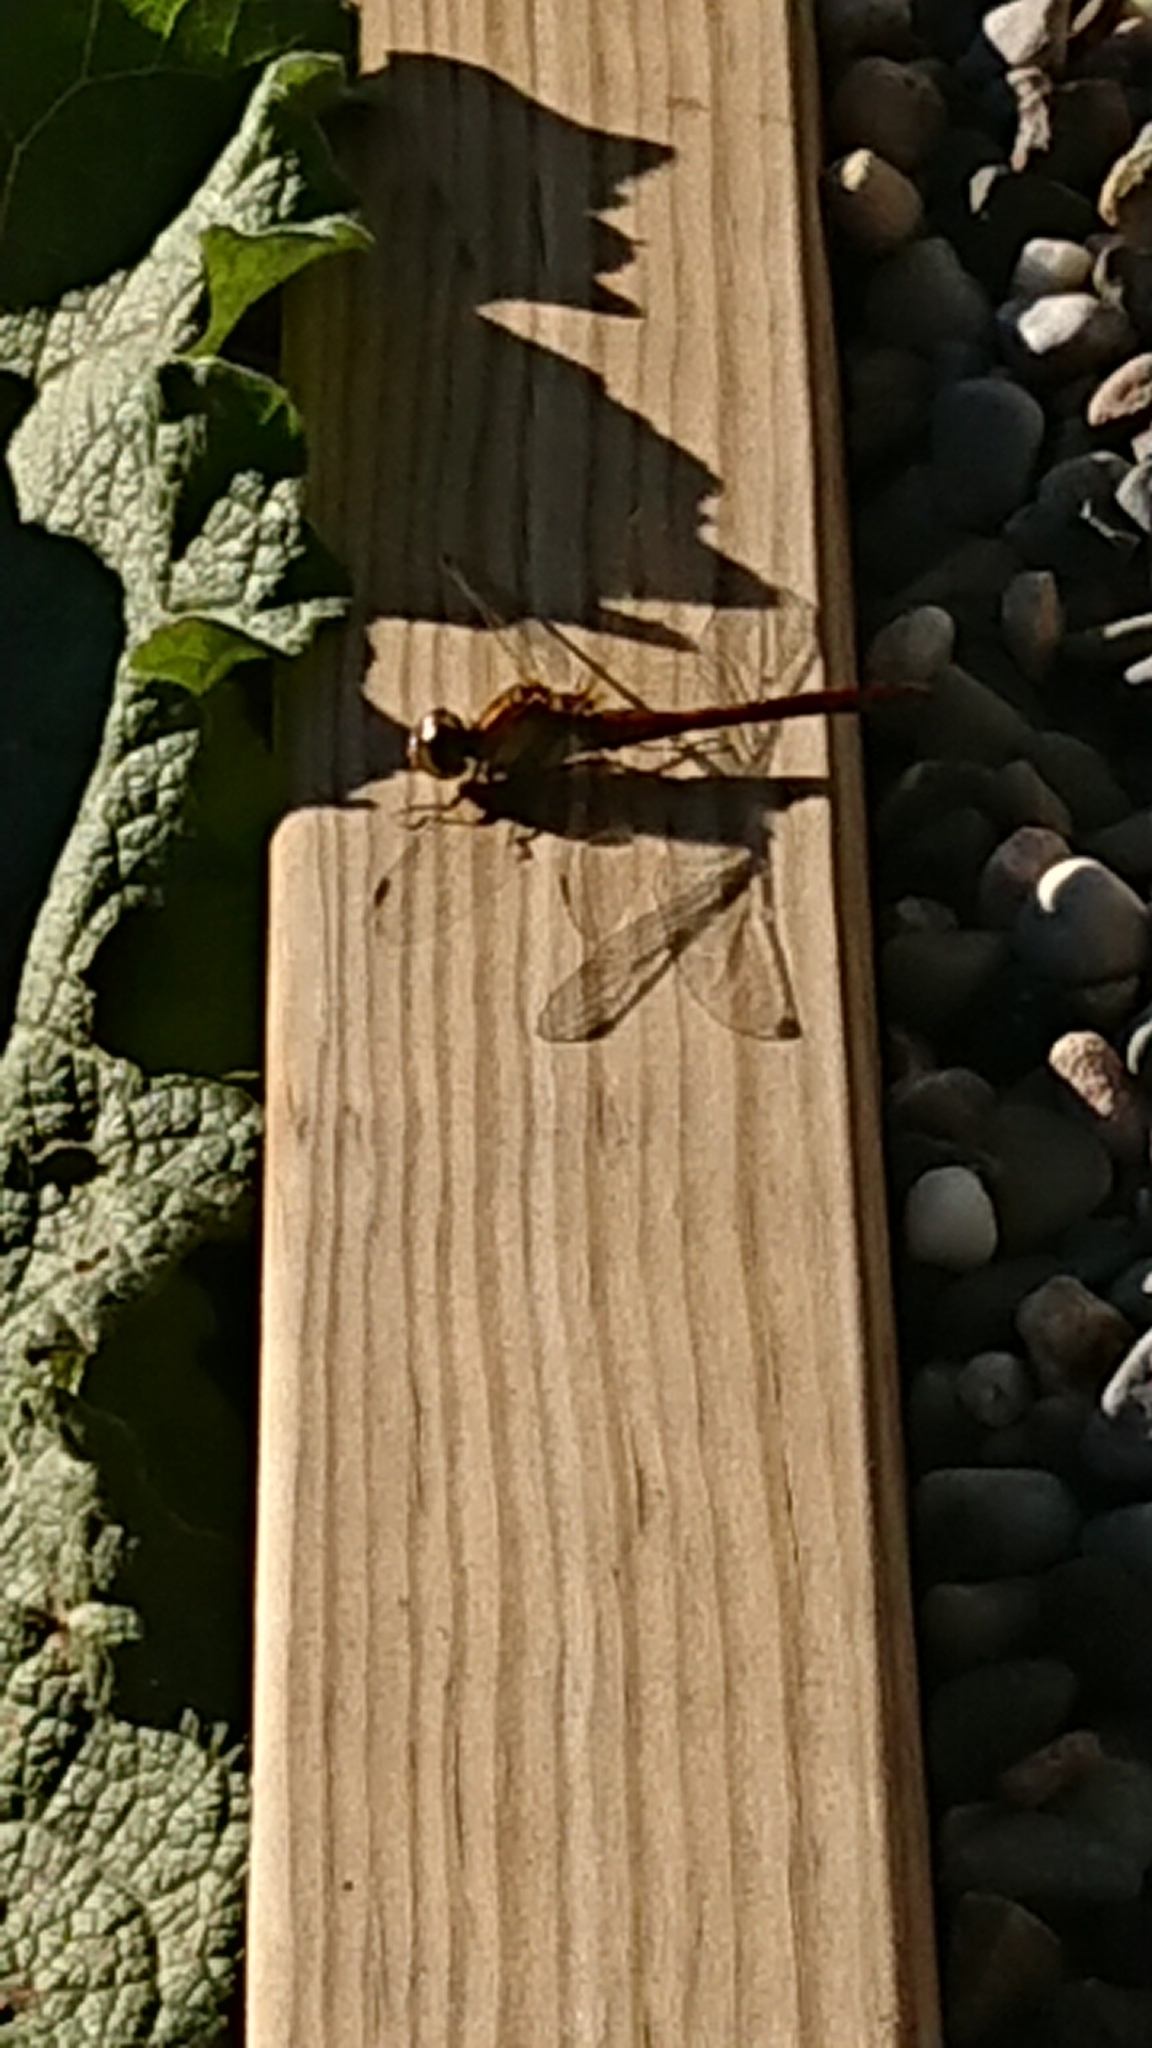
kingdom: Animalia
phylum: Arthropoda
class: Insecta
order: Odonata
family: Libellulidae
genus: Sympetrum
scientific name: Sympetrum striolatum
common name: Common darter
